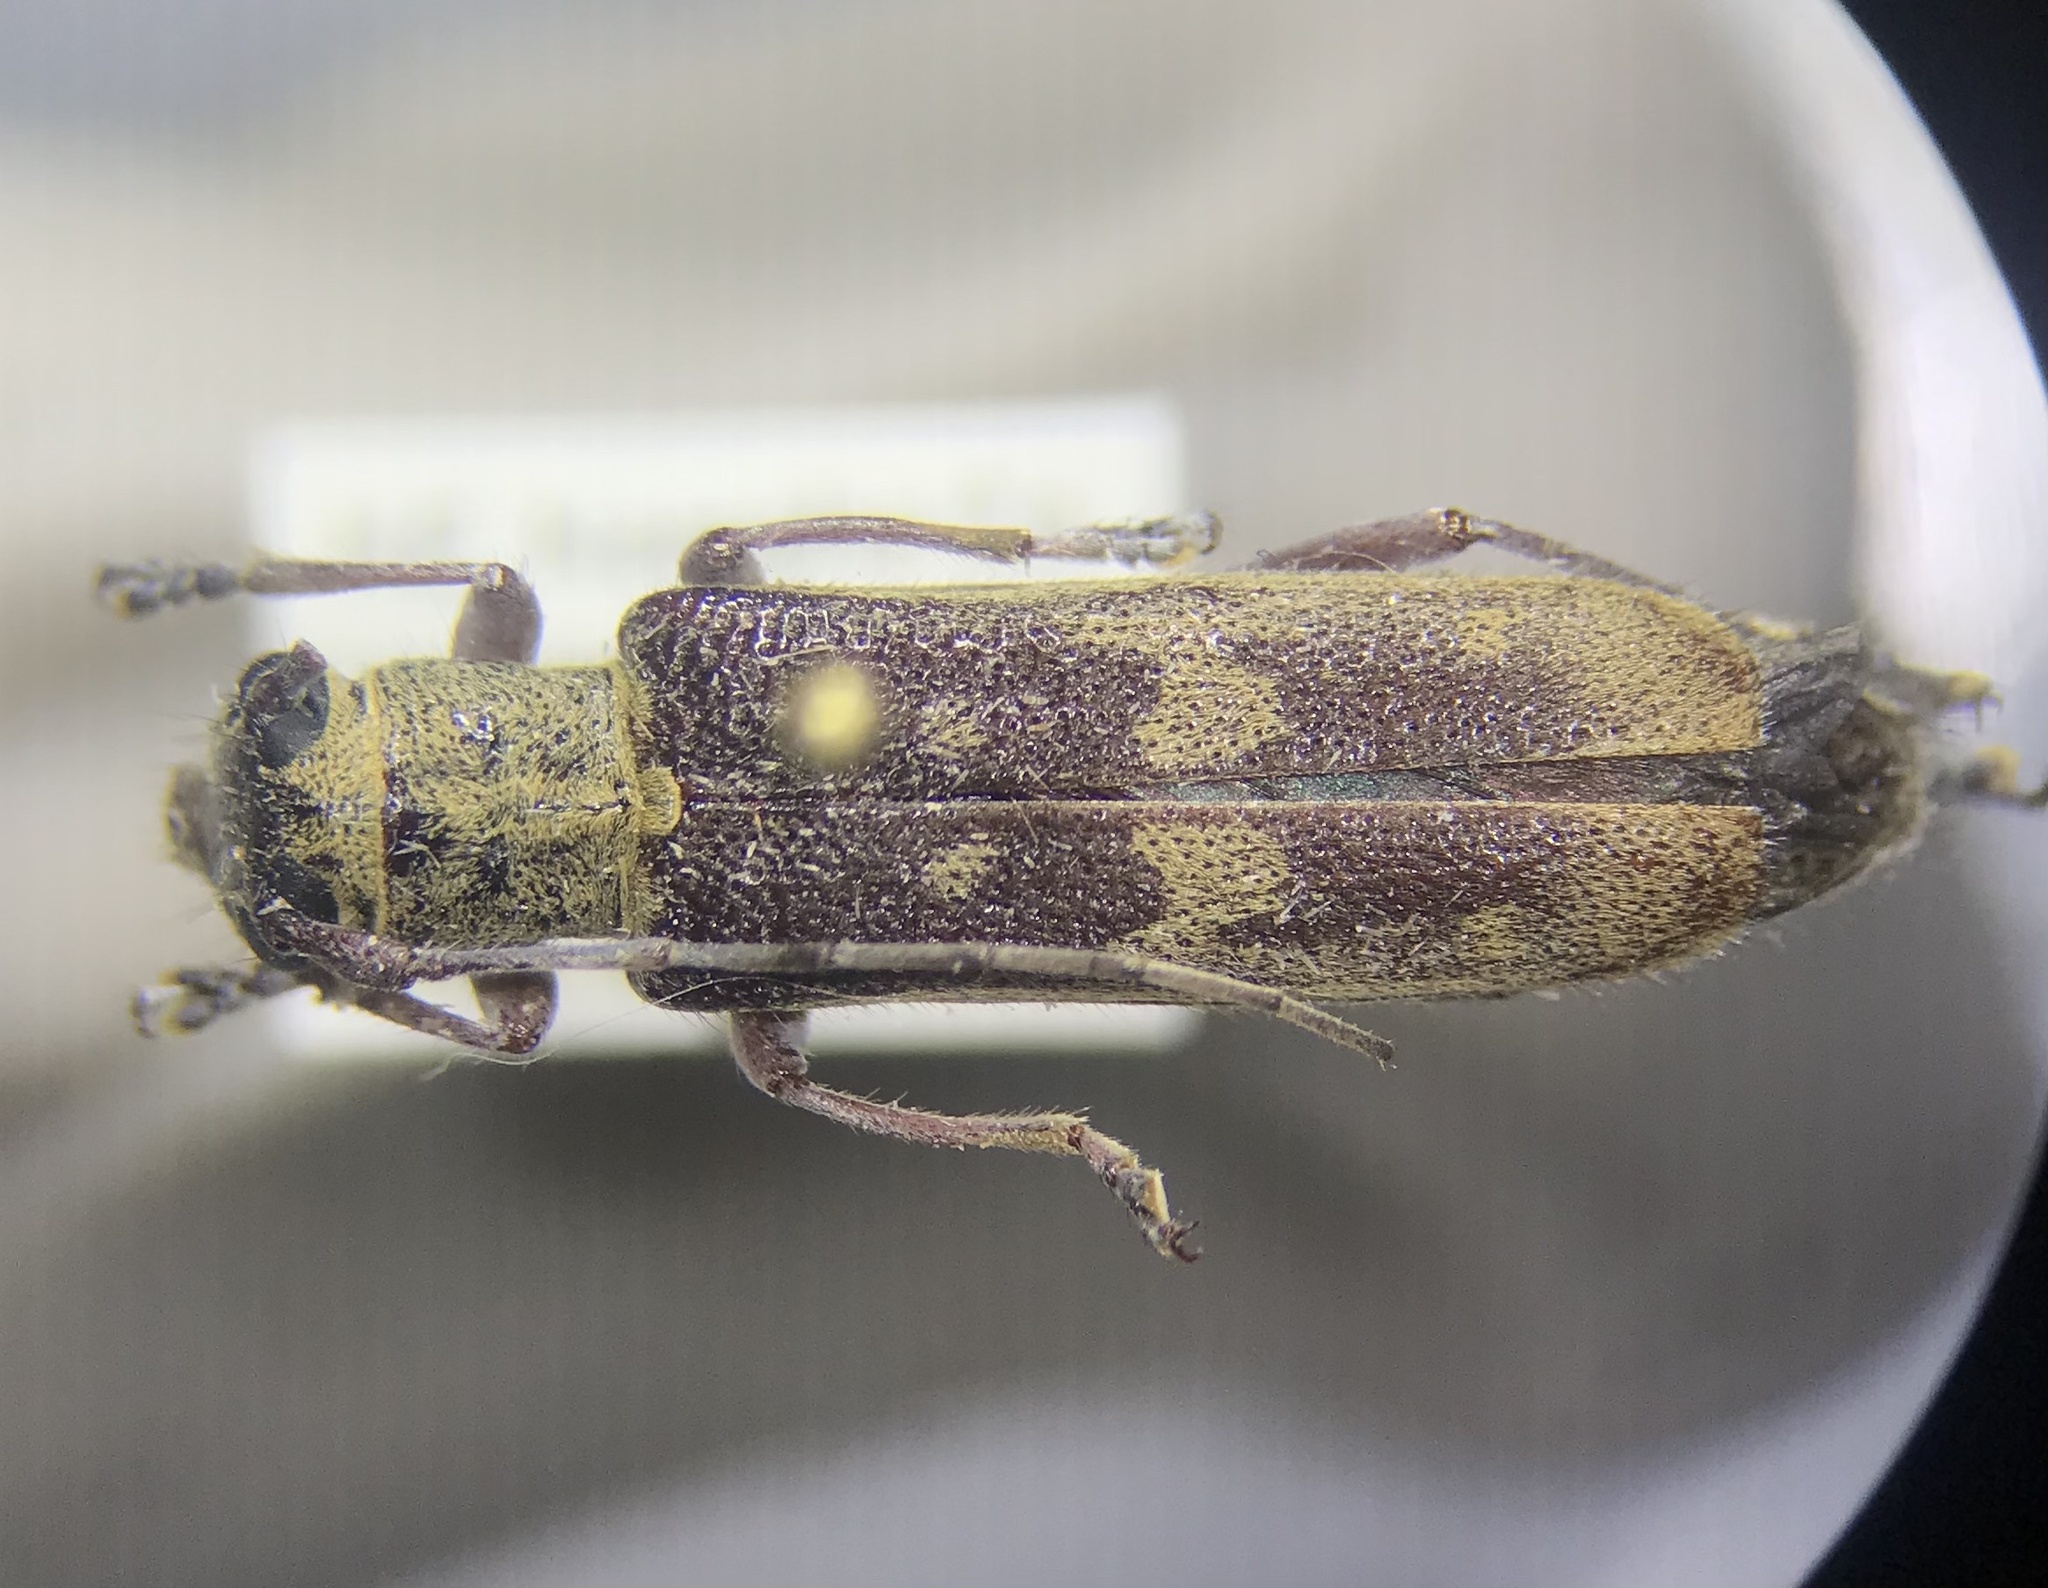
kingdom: Animalia
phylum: Arthropoda
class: Insecta
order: Coleoptera
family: Cerambycidae
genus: Saperda
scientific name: Saperda discoidea
